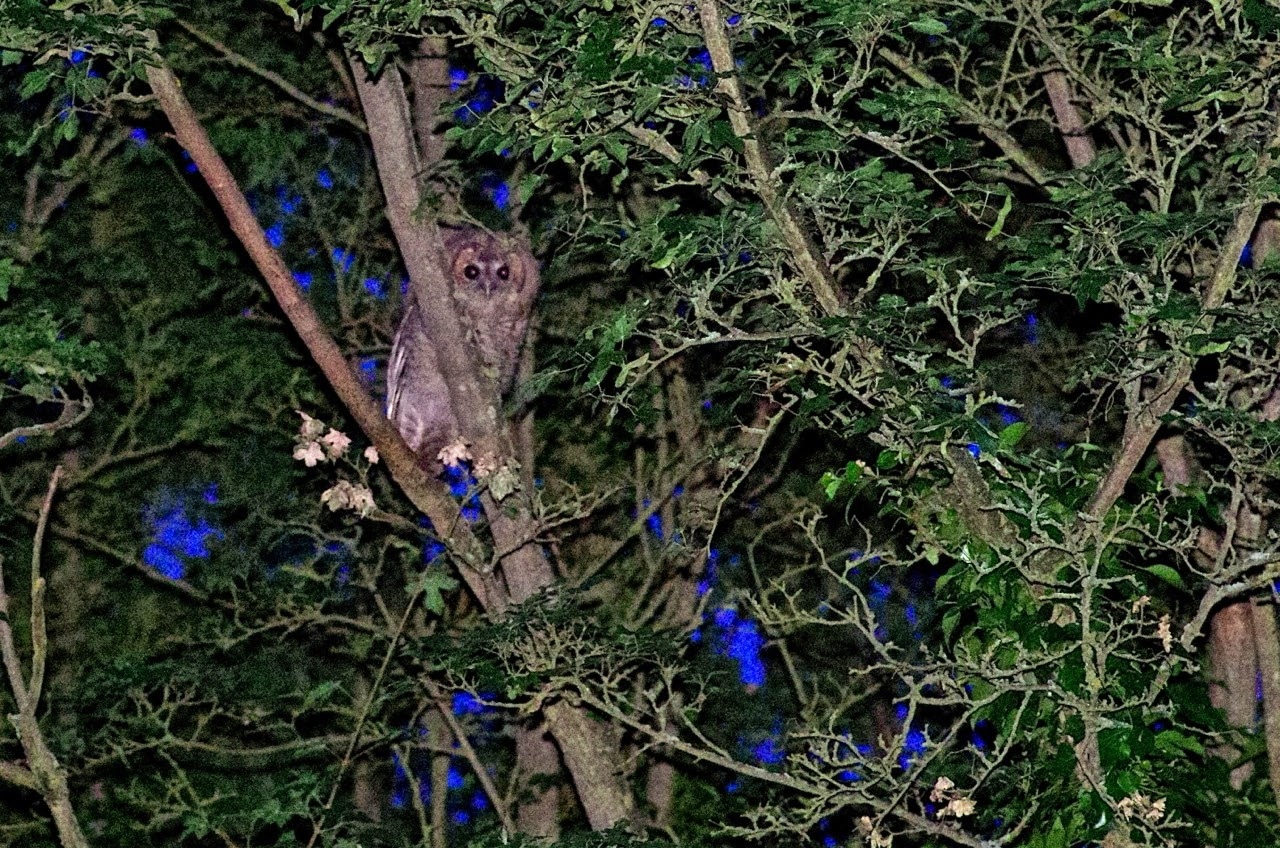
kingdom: Animalia
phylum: Chordata
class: Aves
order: Strigiformes
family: Strigidae
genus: Strix
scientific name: Strix aluco
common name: Tawny owl
